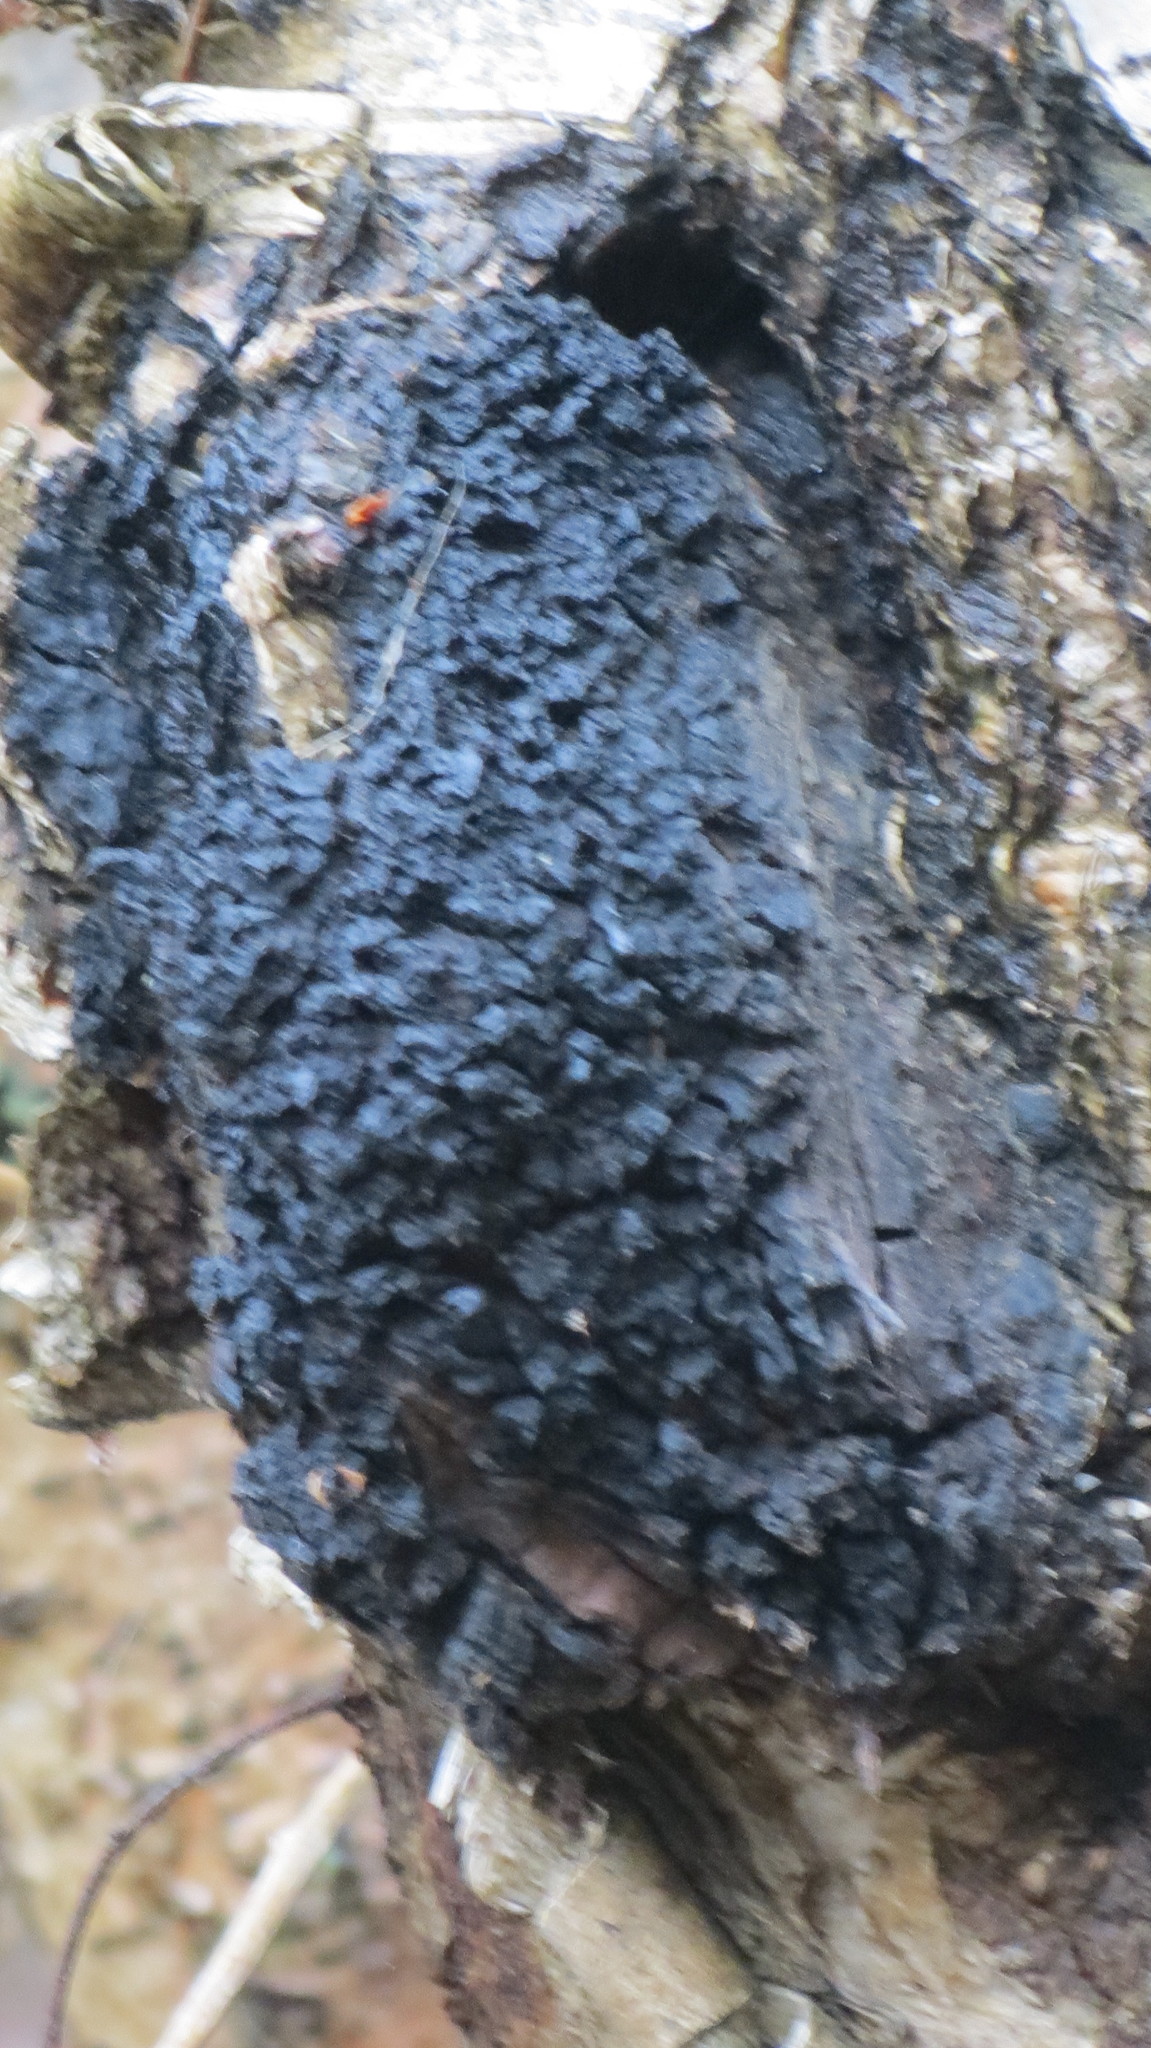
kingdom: Fungi
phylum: Basidiomycota
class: Agaricomycetes
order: Hymenochaetales
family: Hymenochaetaceae
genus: Inonotus
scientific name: Inonotus obliquus
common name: Chaga
